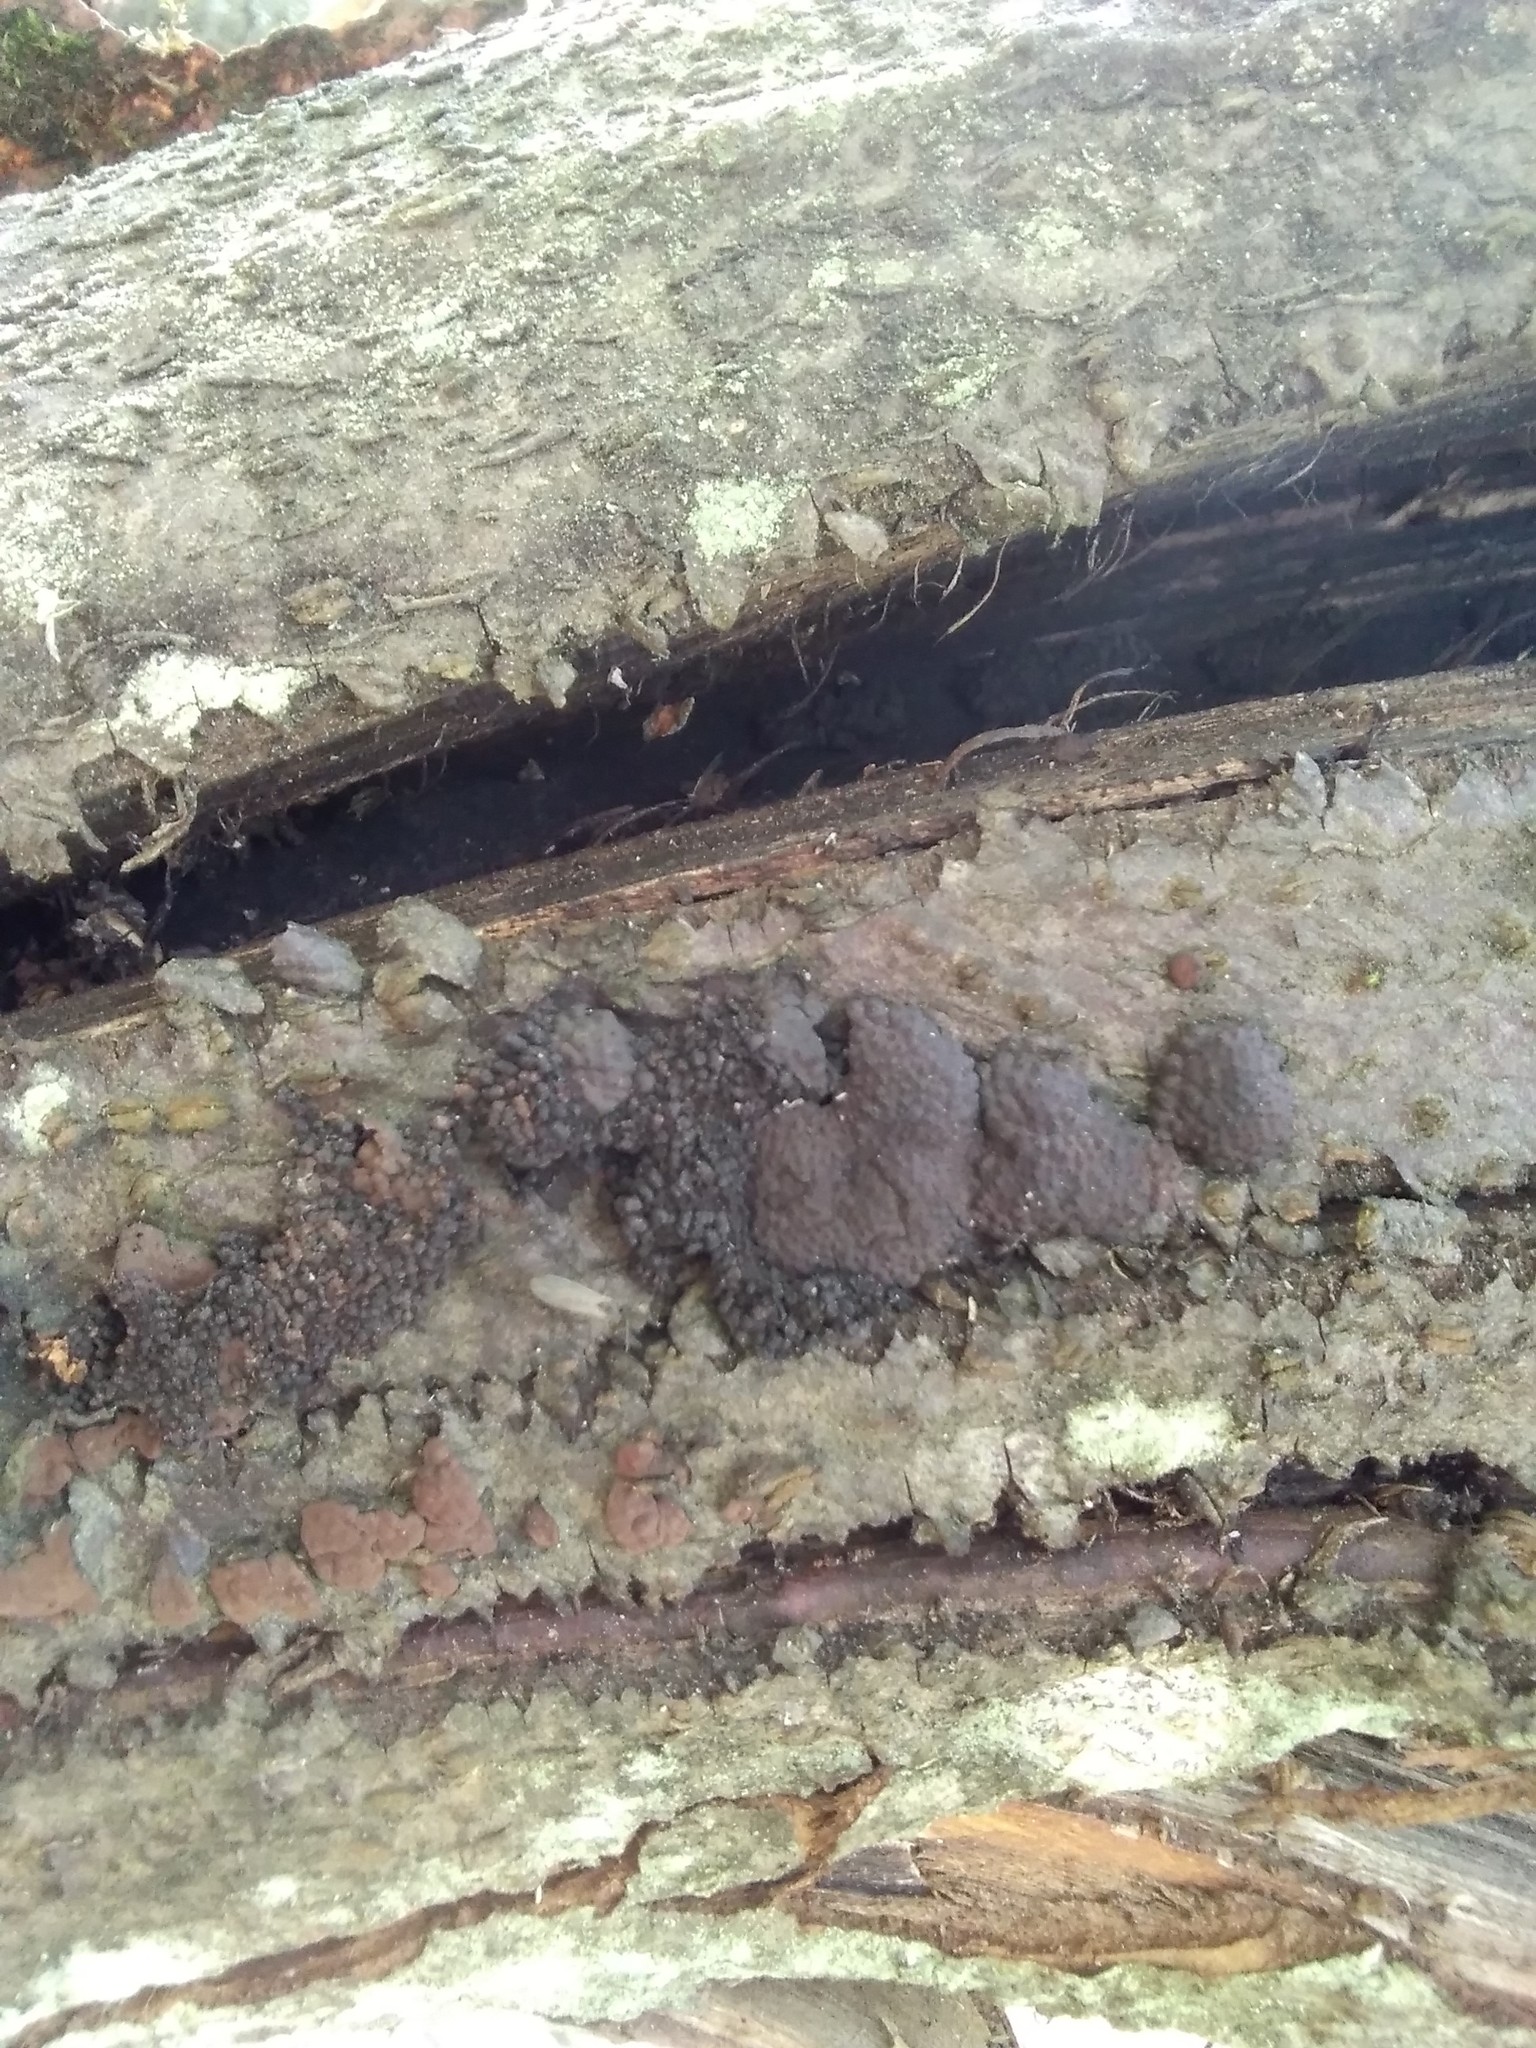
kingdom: Fungi
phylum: Ascomycota
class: Sordariomycetes
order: Xylariales
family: Hypoxylaceae
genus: Jackrogersella
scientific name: Jackrogersella multiformis
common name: Birch woodwart
